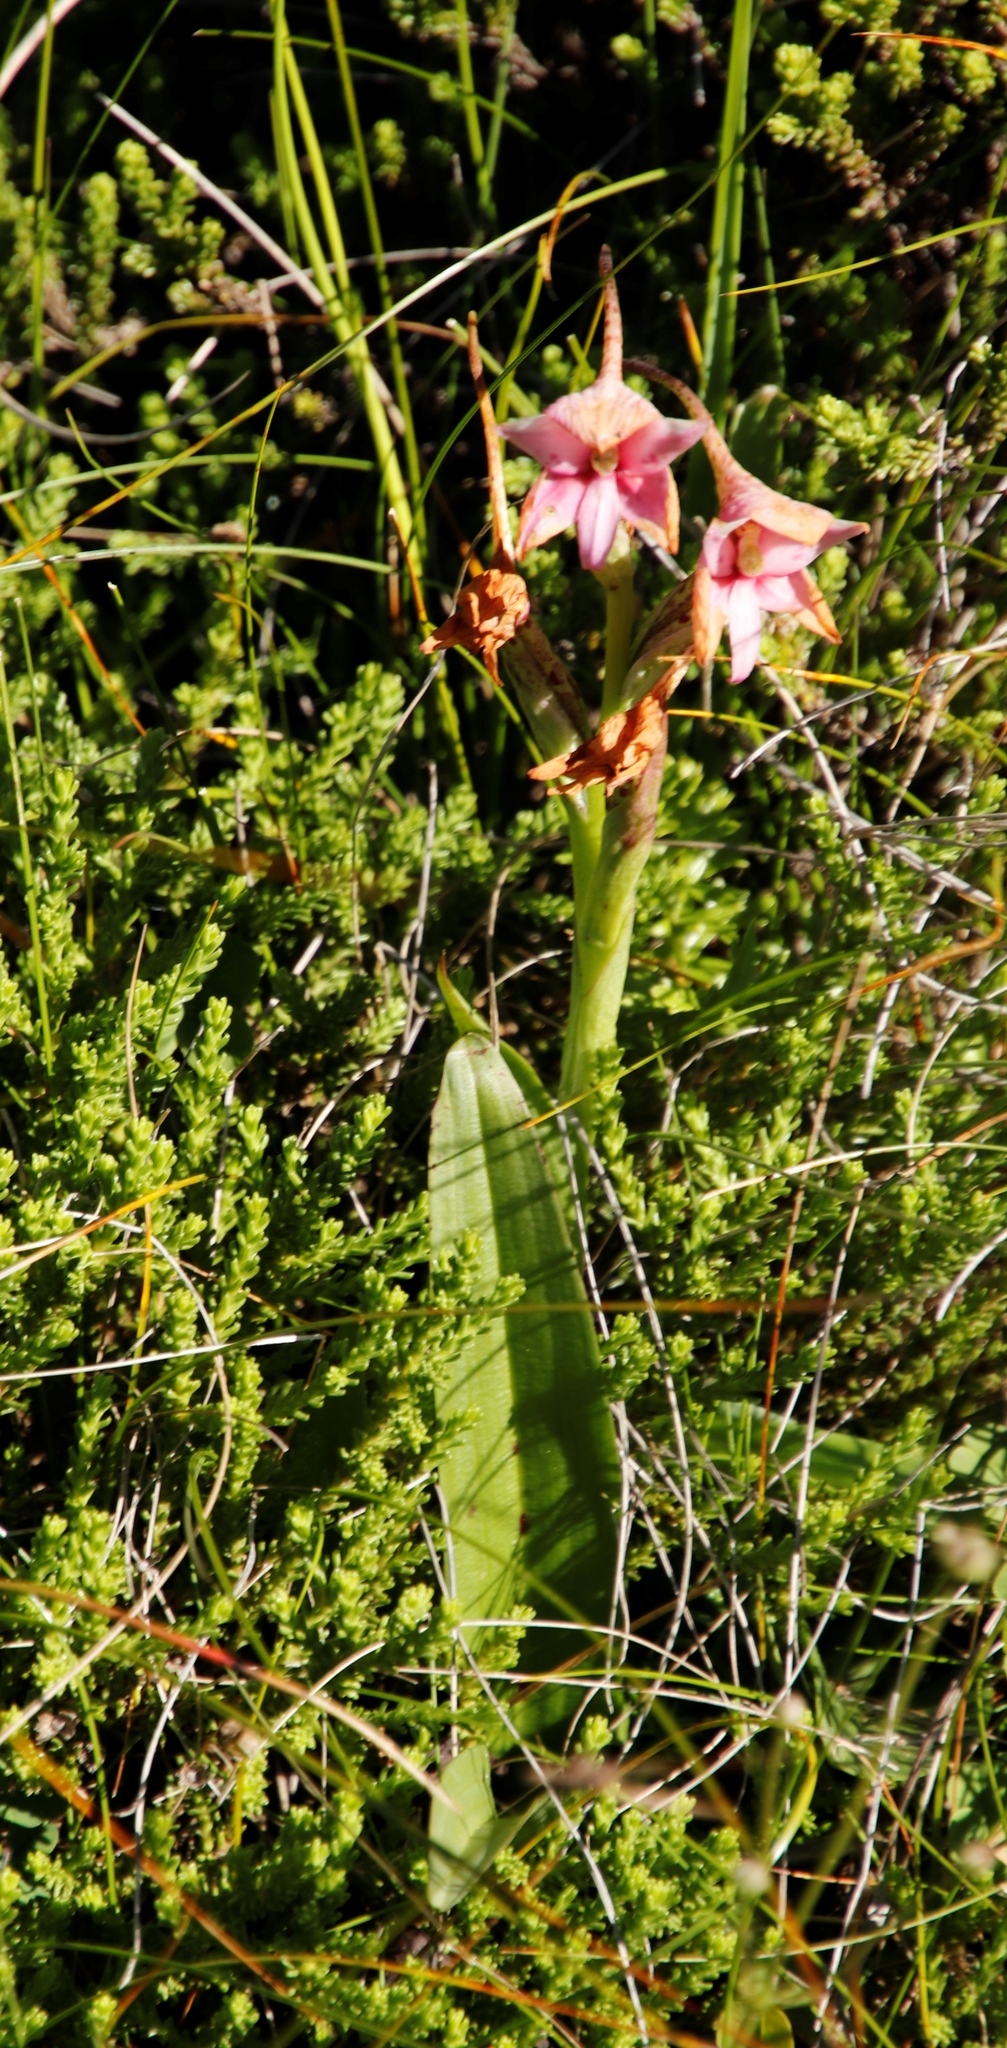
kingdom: Plantae
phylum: Tracheophyta
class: Liliopsida
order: Asparagales
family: Orchidaceae
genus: Disa
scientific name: Disa thodei
